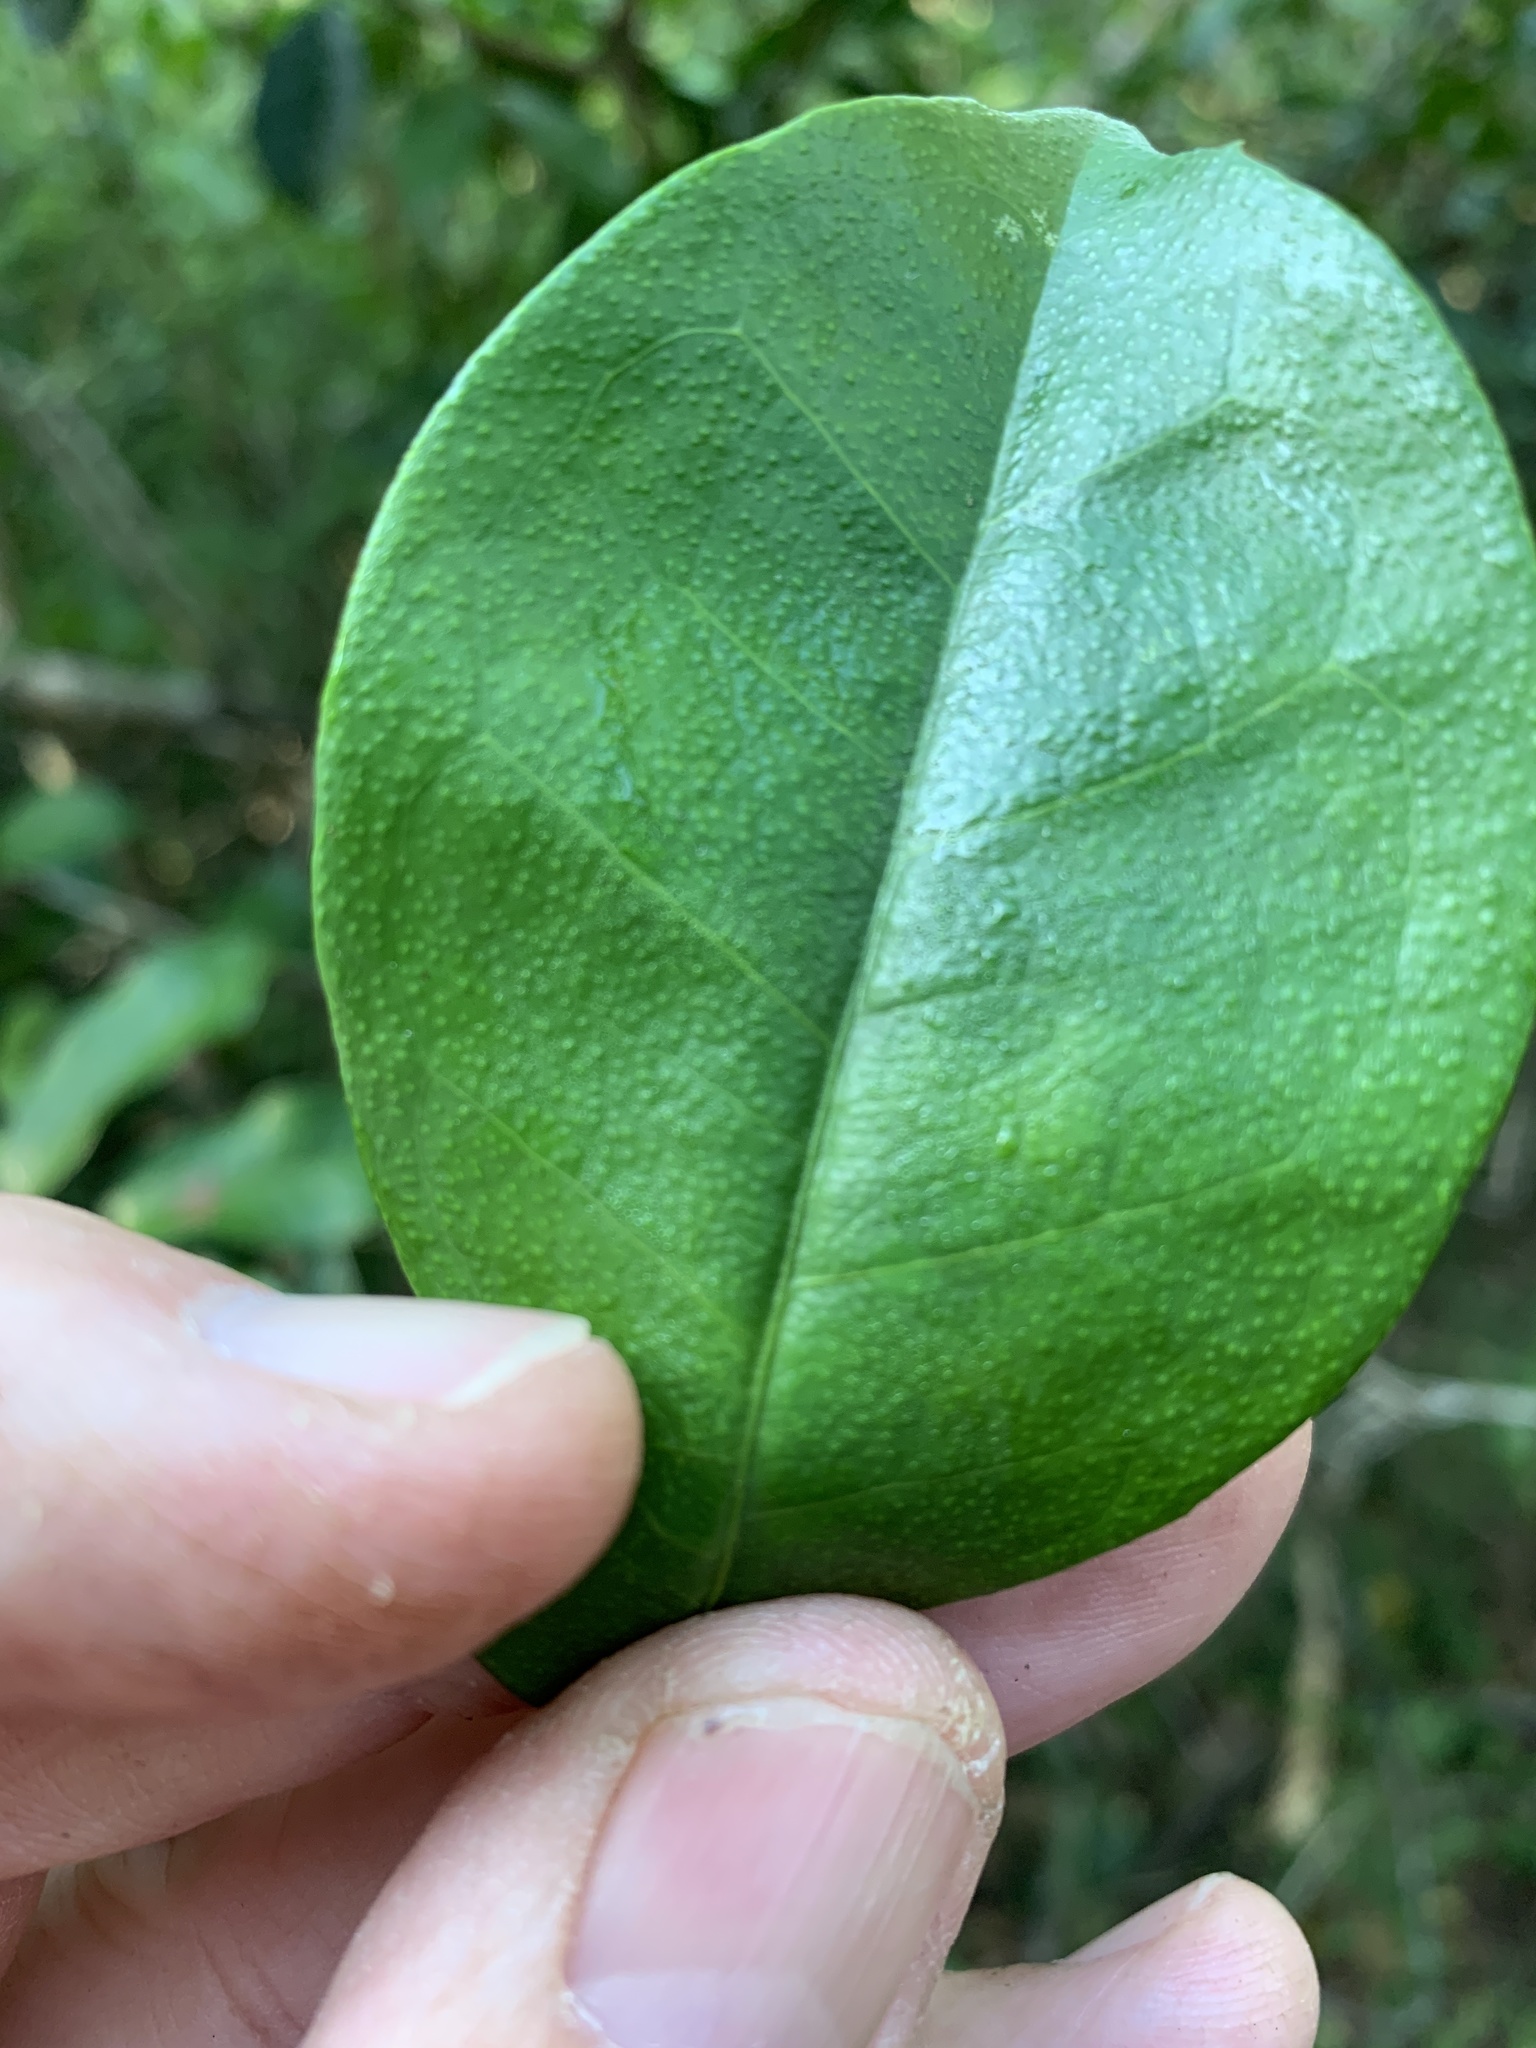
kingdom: Plantae
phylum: Tracheophyta
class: Magnoliopsida
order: Malpighiales
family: Euphorbiaceae
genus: Suregada
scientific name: Suregada zanzibariensis
